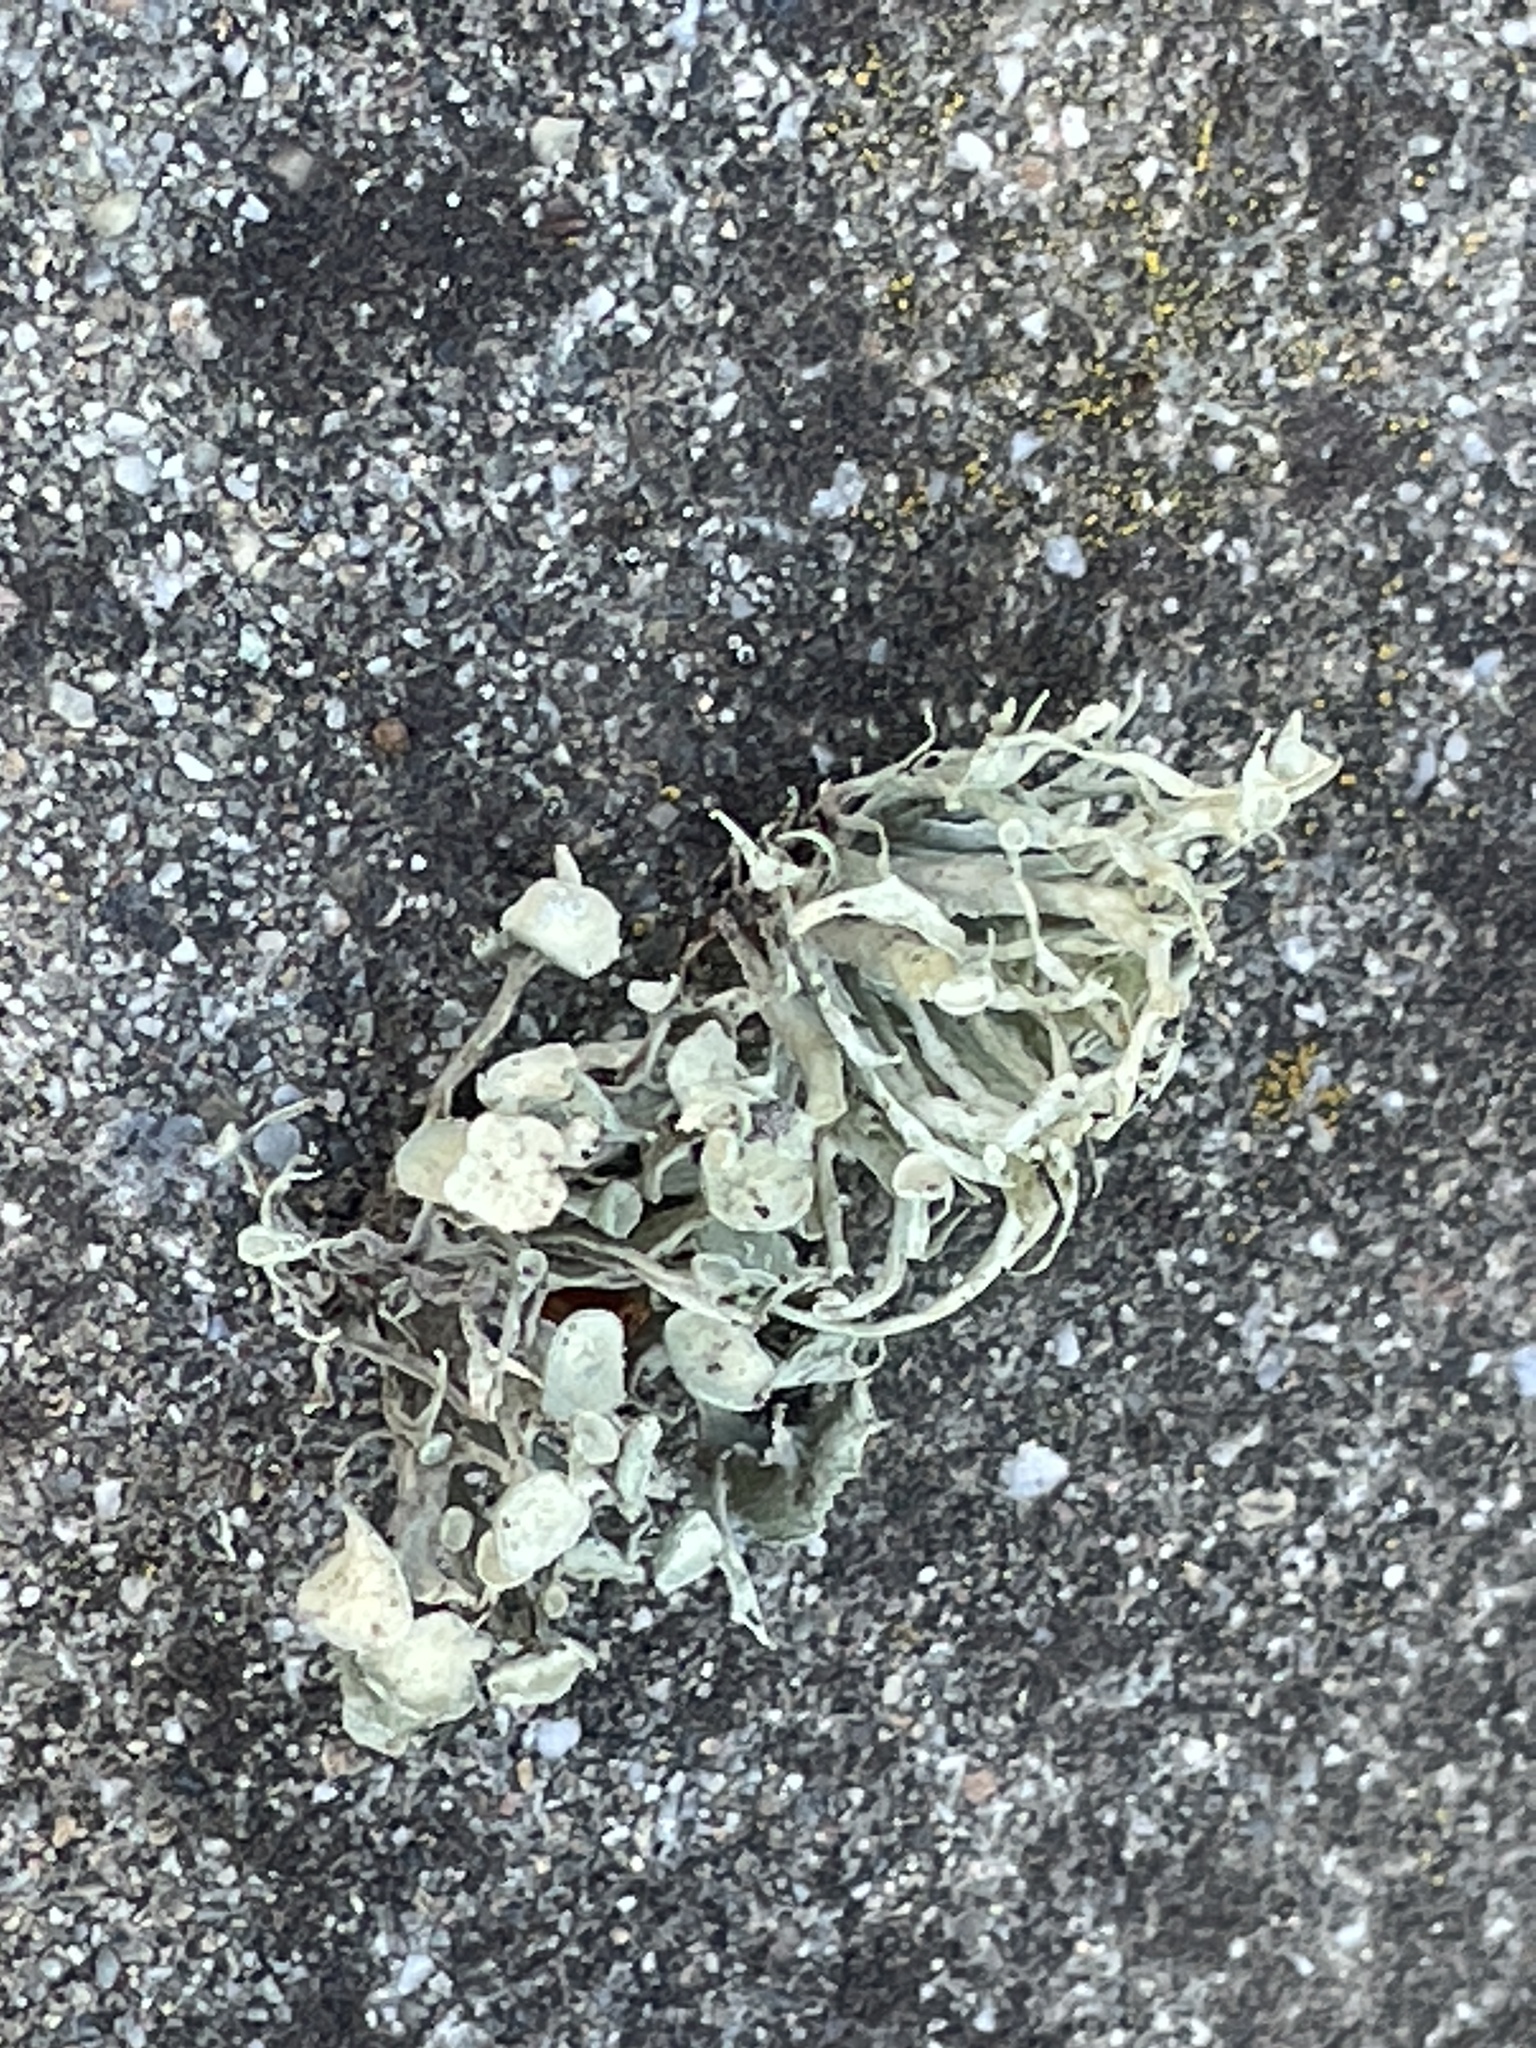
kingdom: Fungi
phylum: Ascomycota
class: Lecanoromycetes
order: Lecanorales
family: Ramalinaceae
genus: Ramalina
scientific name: Ramalina leptocarpha
